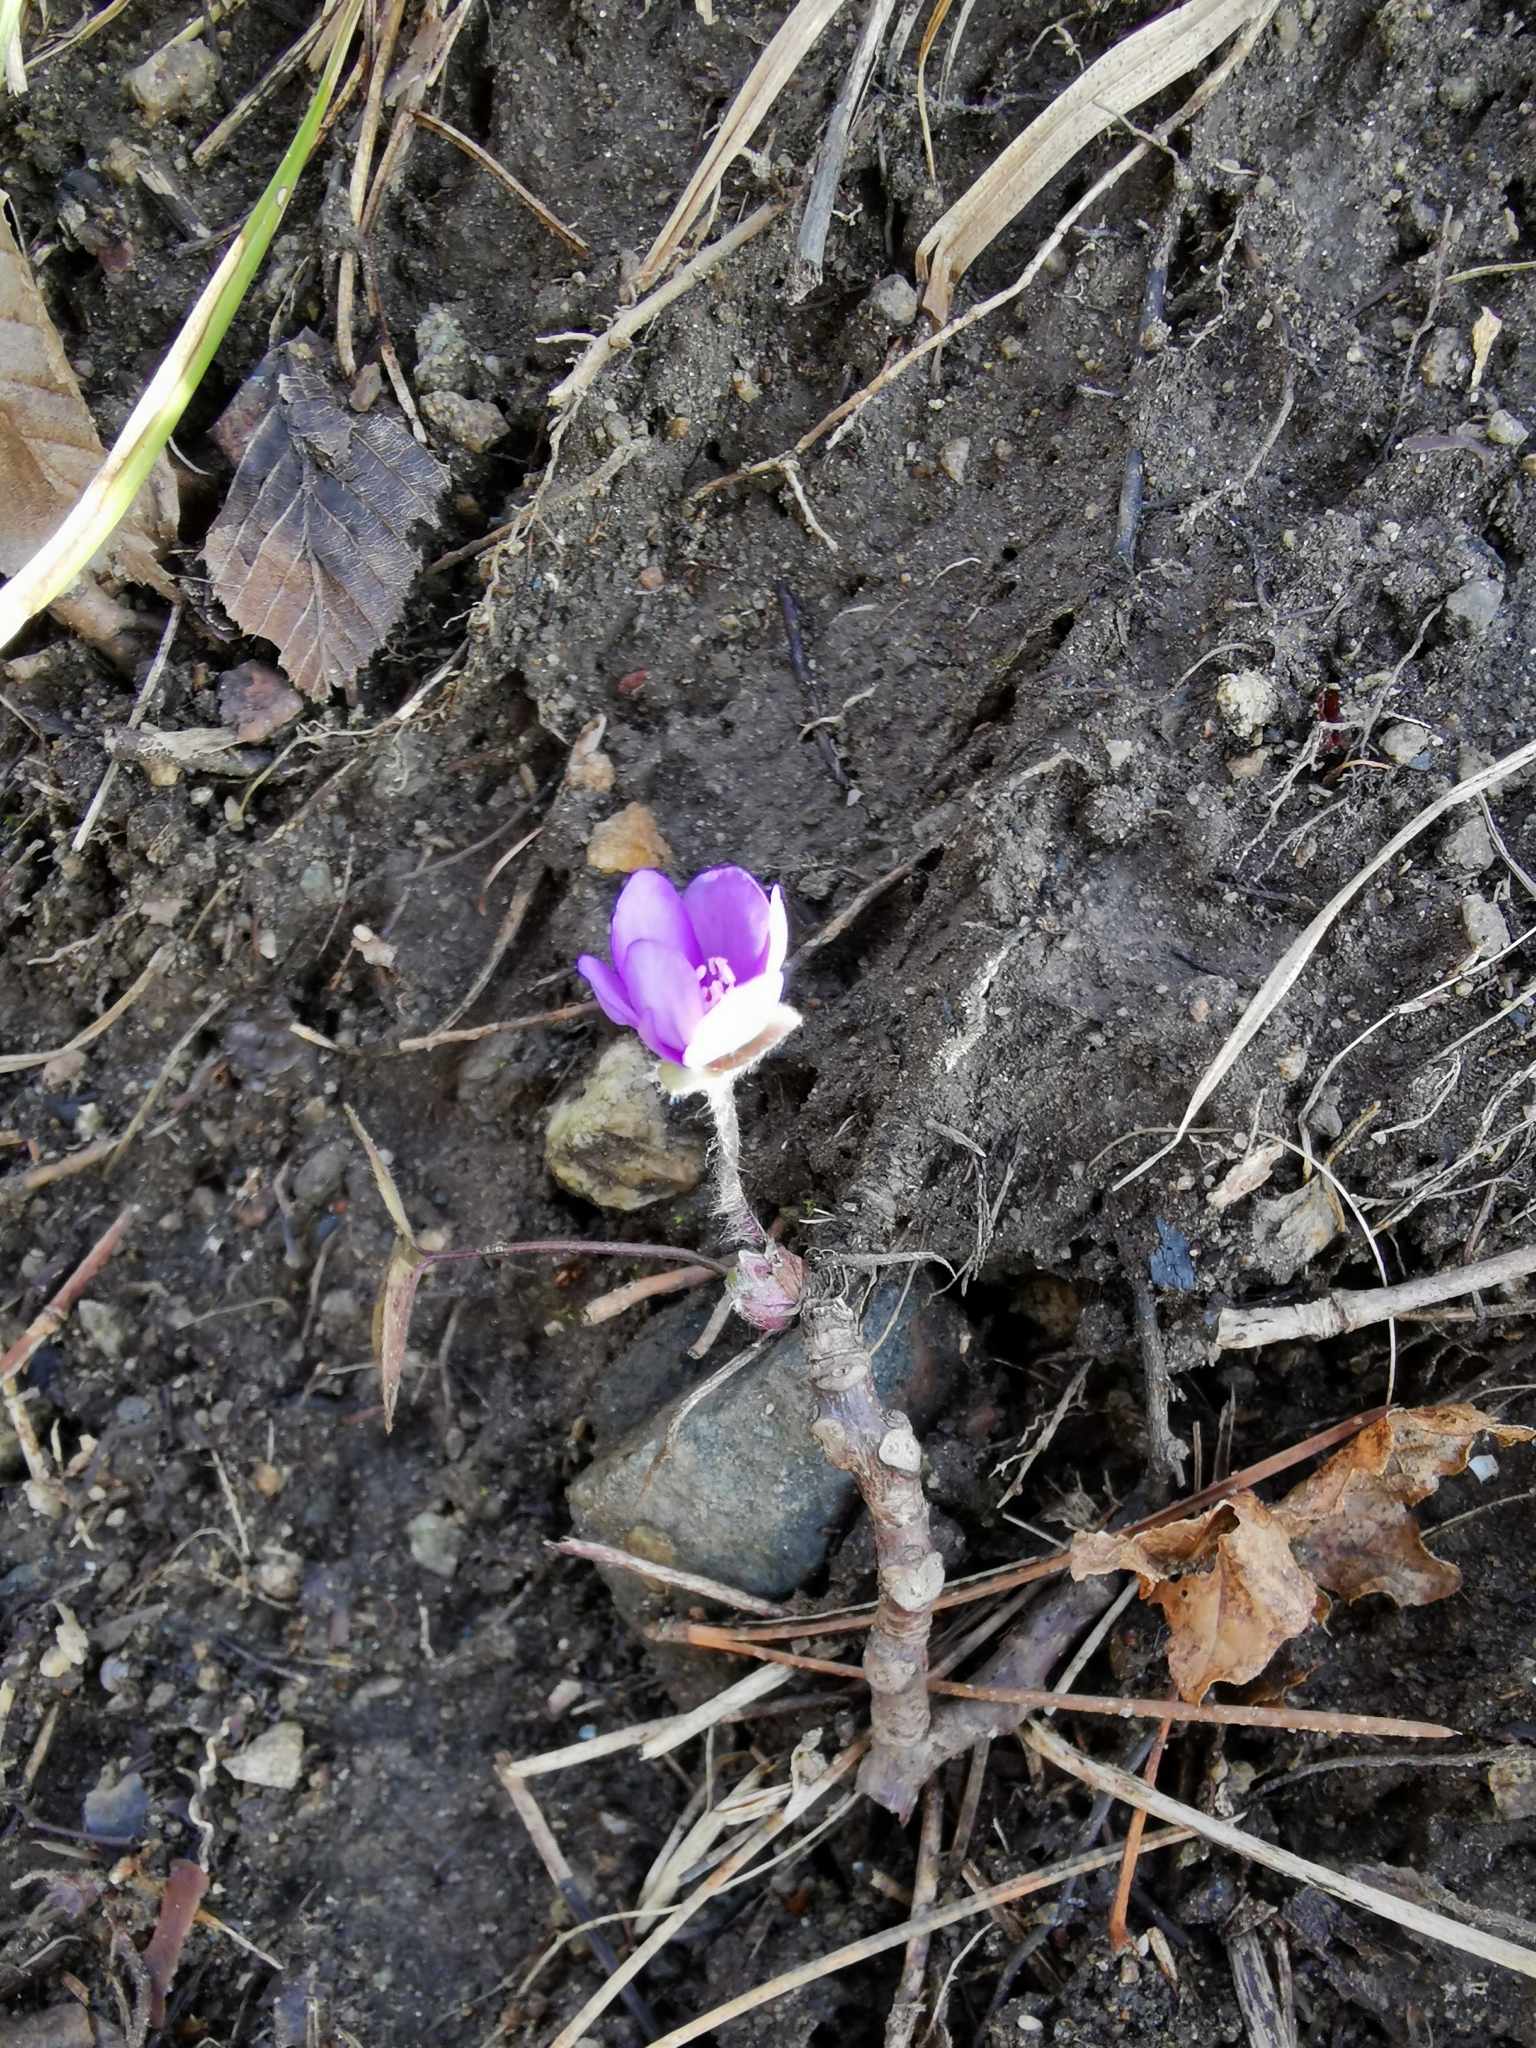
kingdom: Plantae
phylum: Tracheophyta
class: Magnoliopsida
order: Ranunculales
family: Ranunculaceae
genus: Hepatica
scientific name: Hepatica nobilis
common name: Liverleaf
